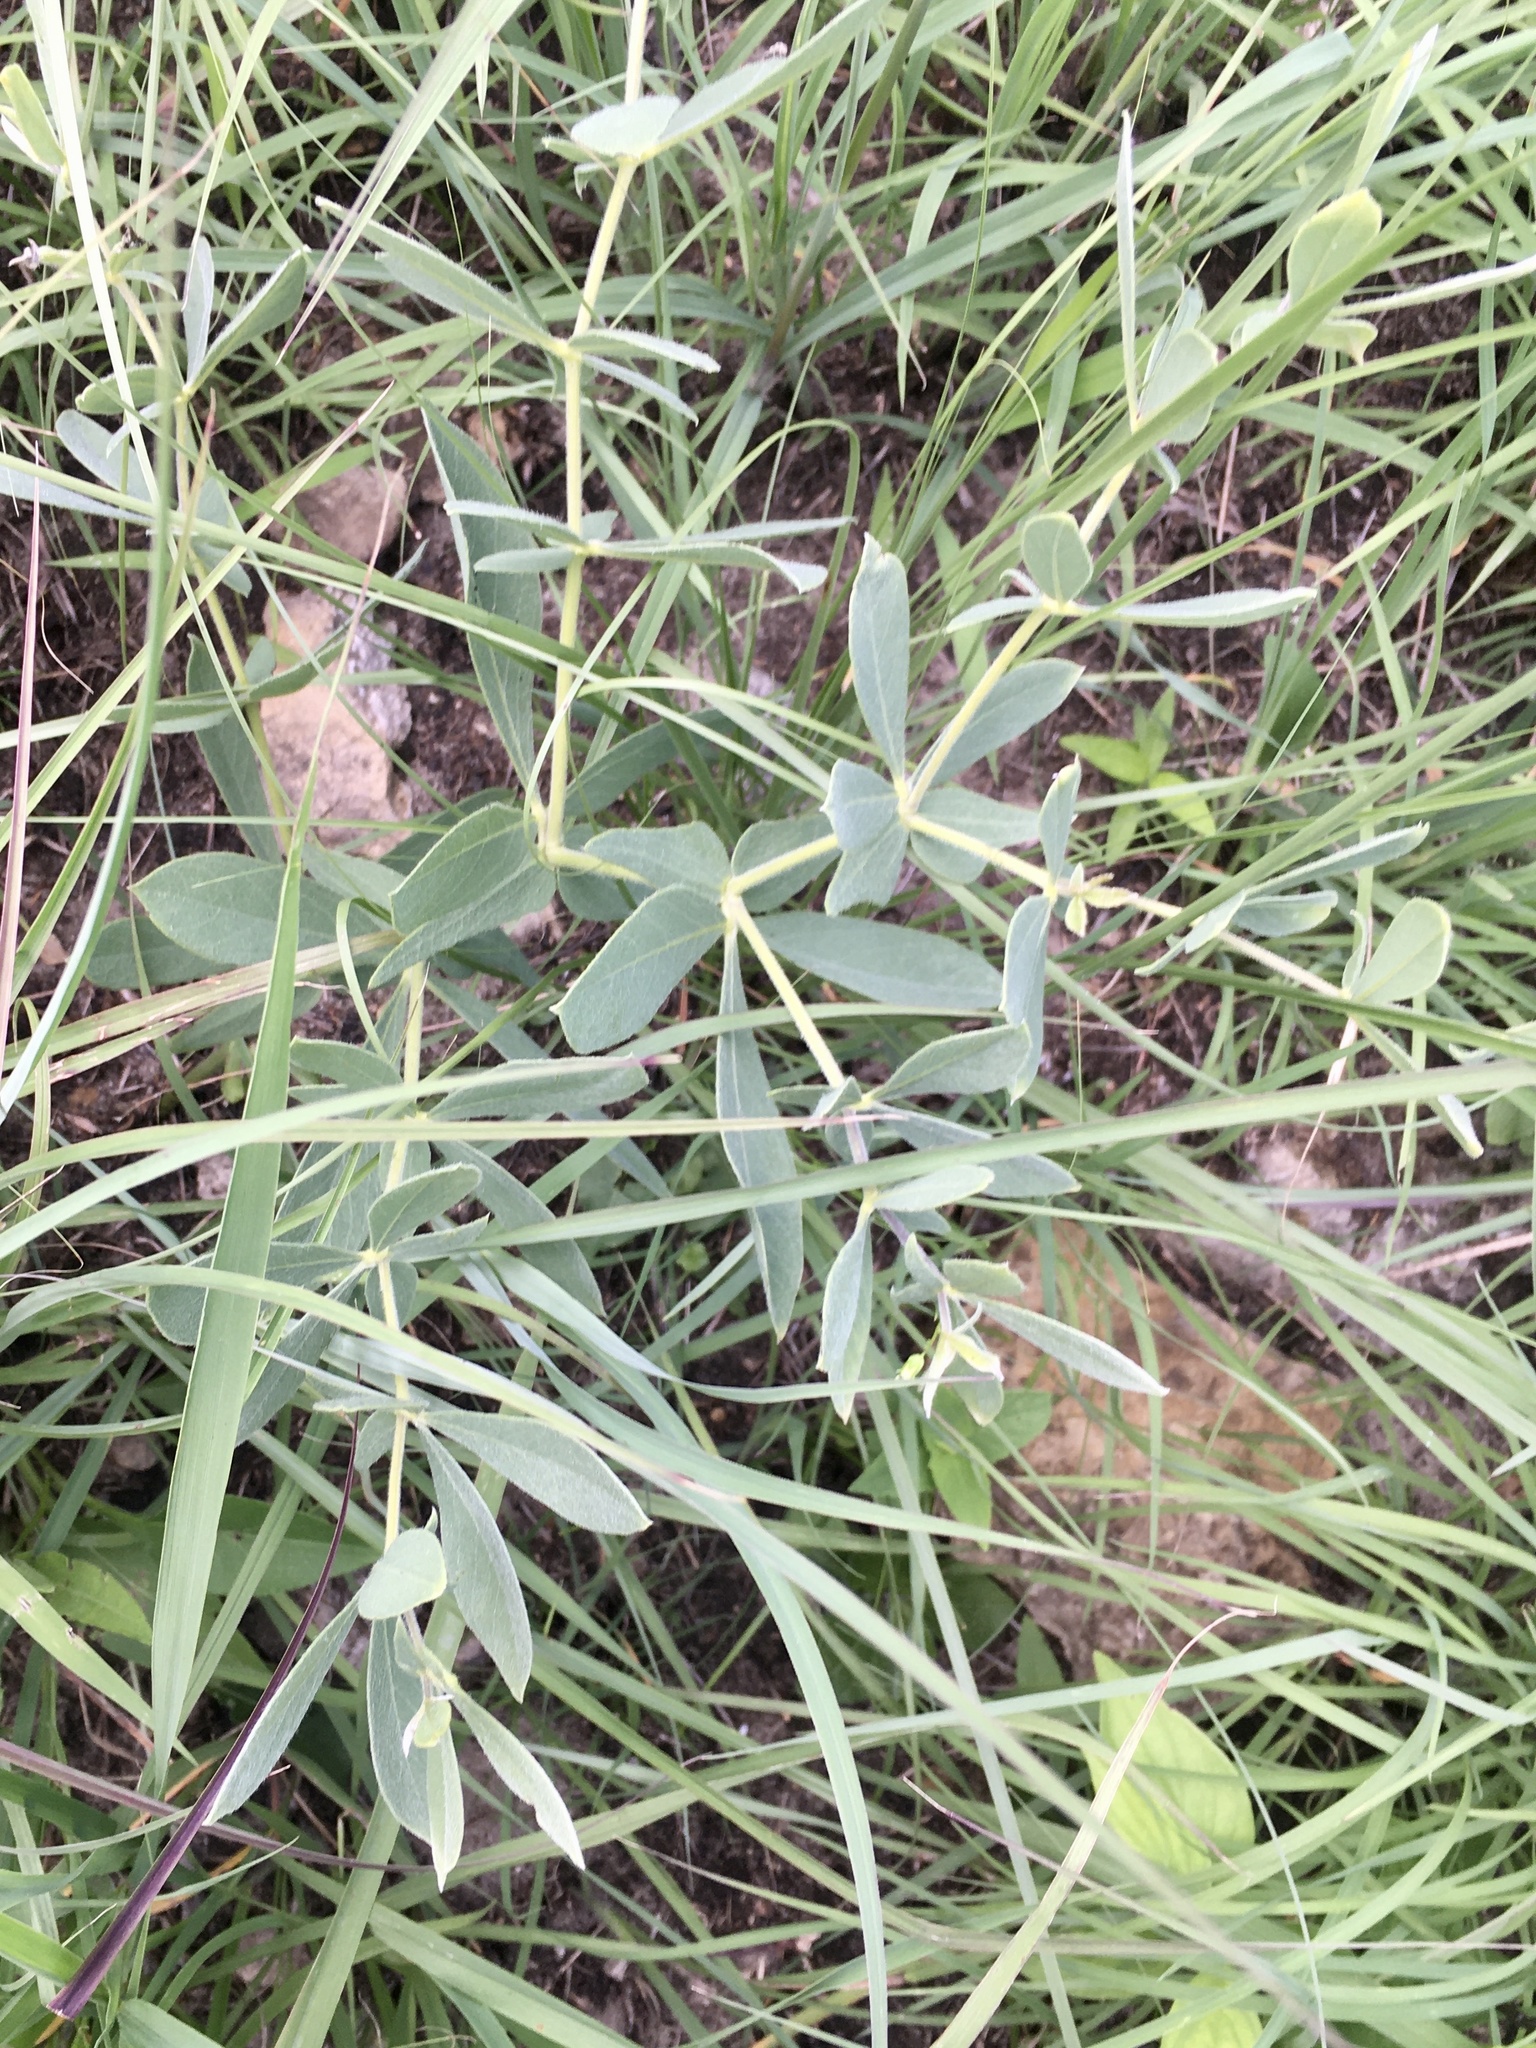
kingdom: Plantae
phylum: Tracheophyta
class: Magnoliopsida
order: Fabales
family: Fabaceae
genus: Baptisia
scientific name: Baptisia bracteata
